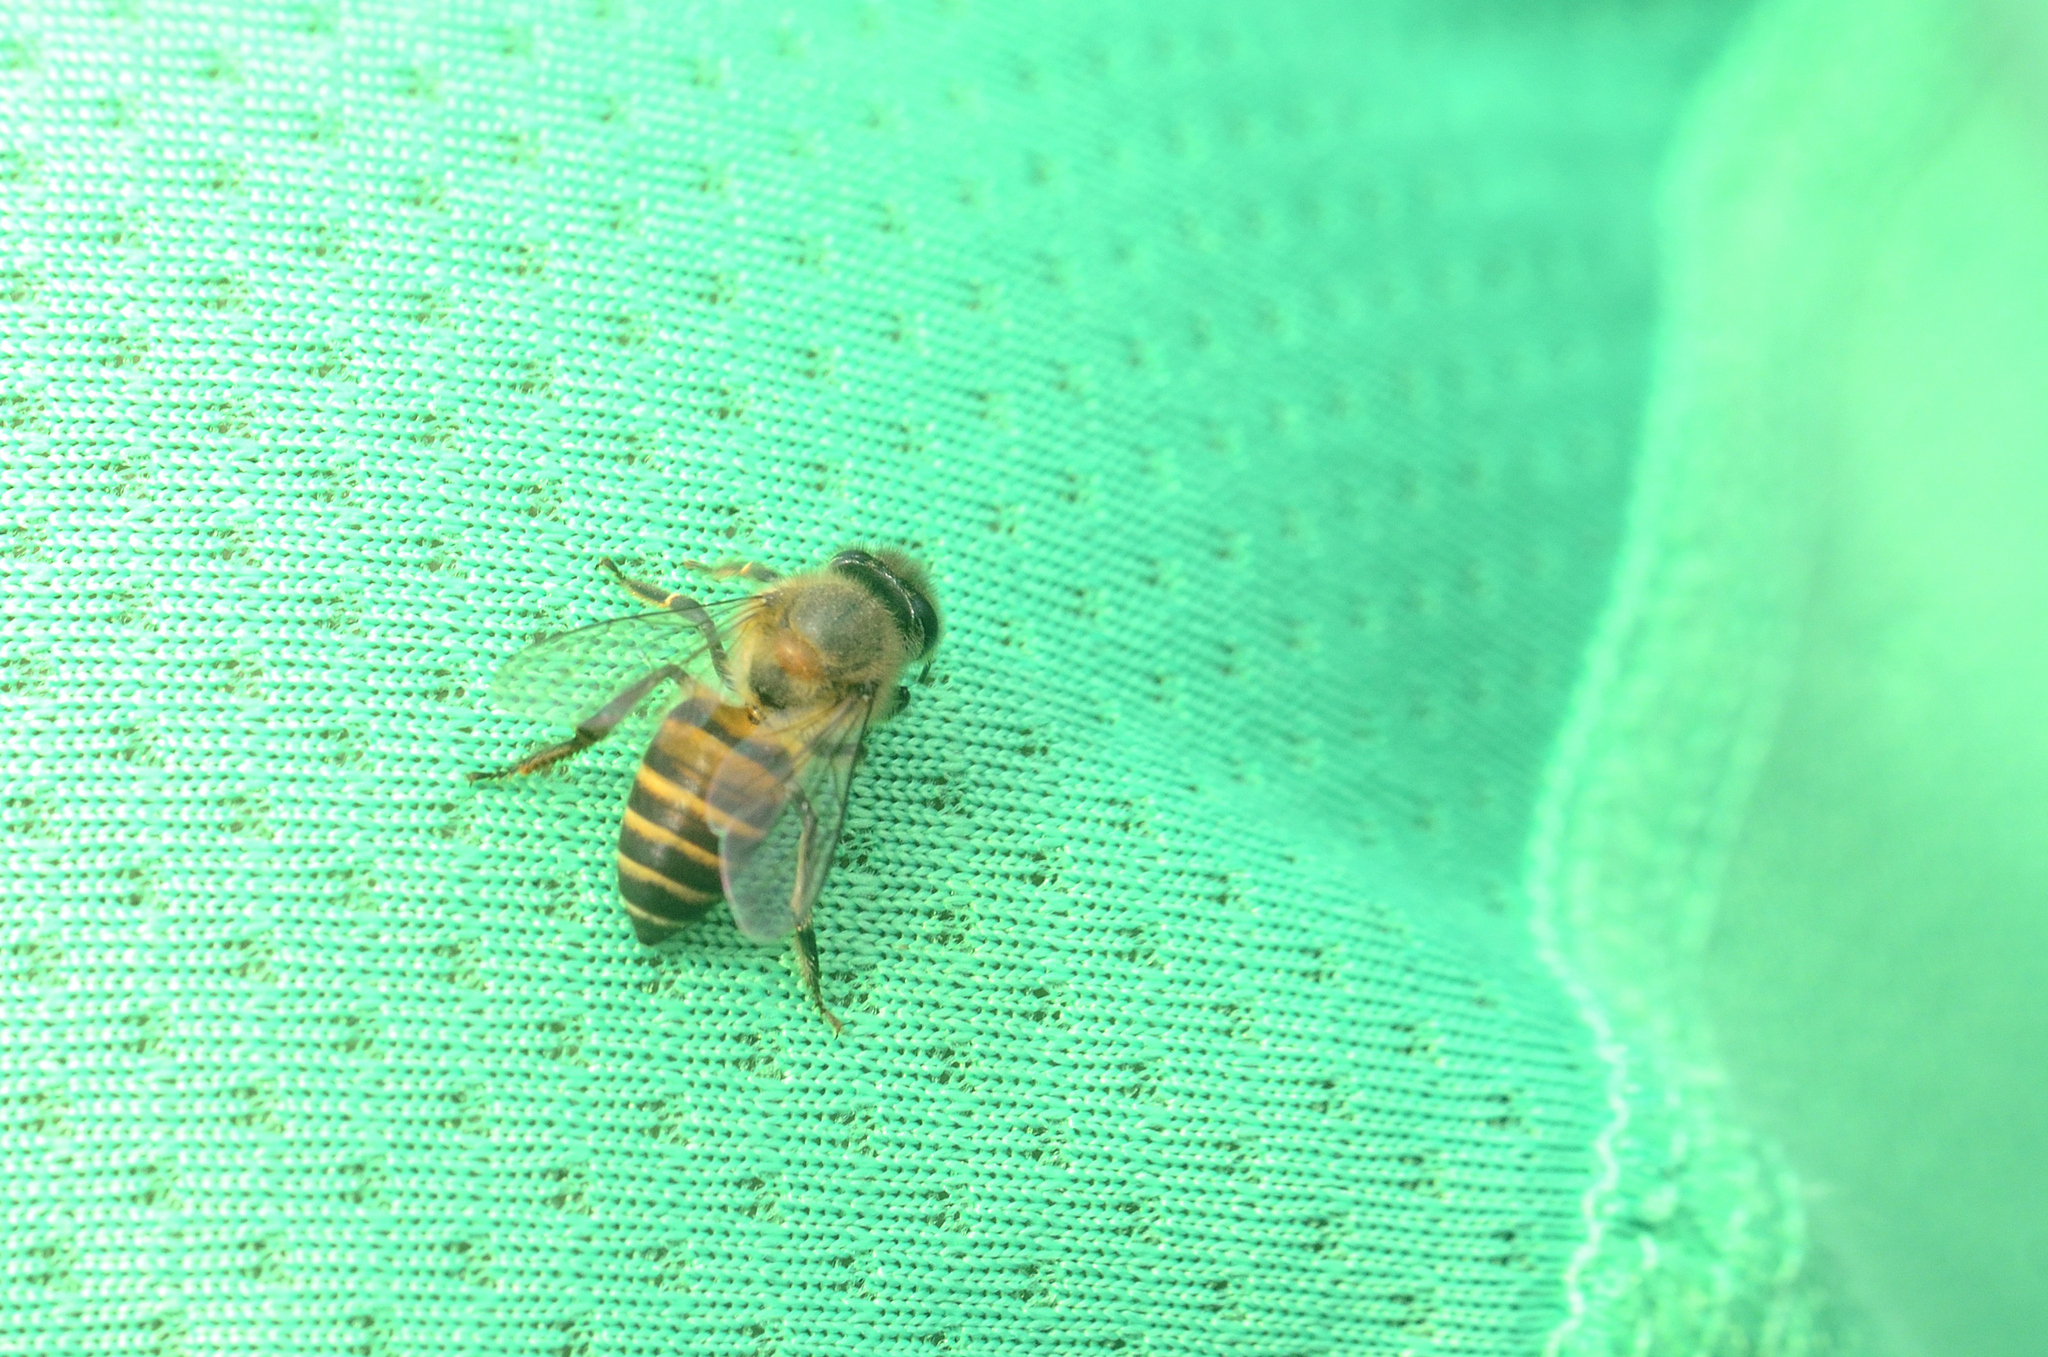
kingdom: Animalia
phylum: Arthropoda
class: Insecta
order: Hymenoptera
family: Apidae
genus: Apis
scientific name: Apis cerana
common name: Honey bee
